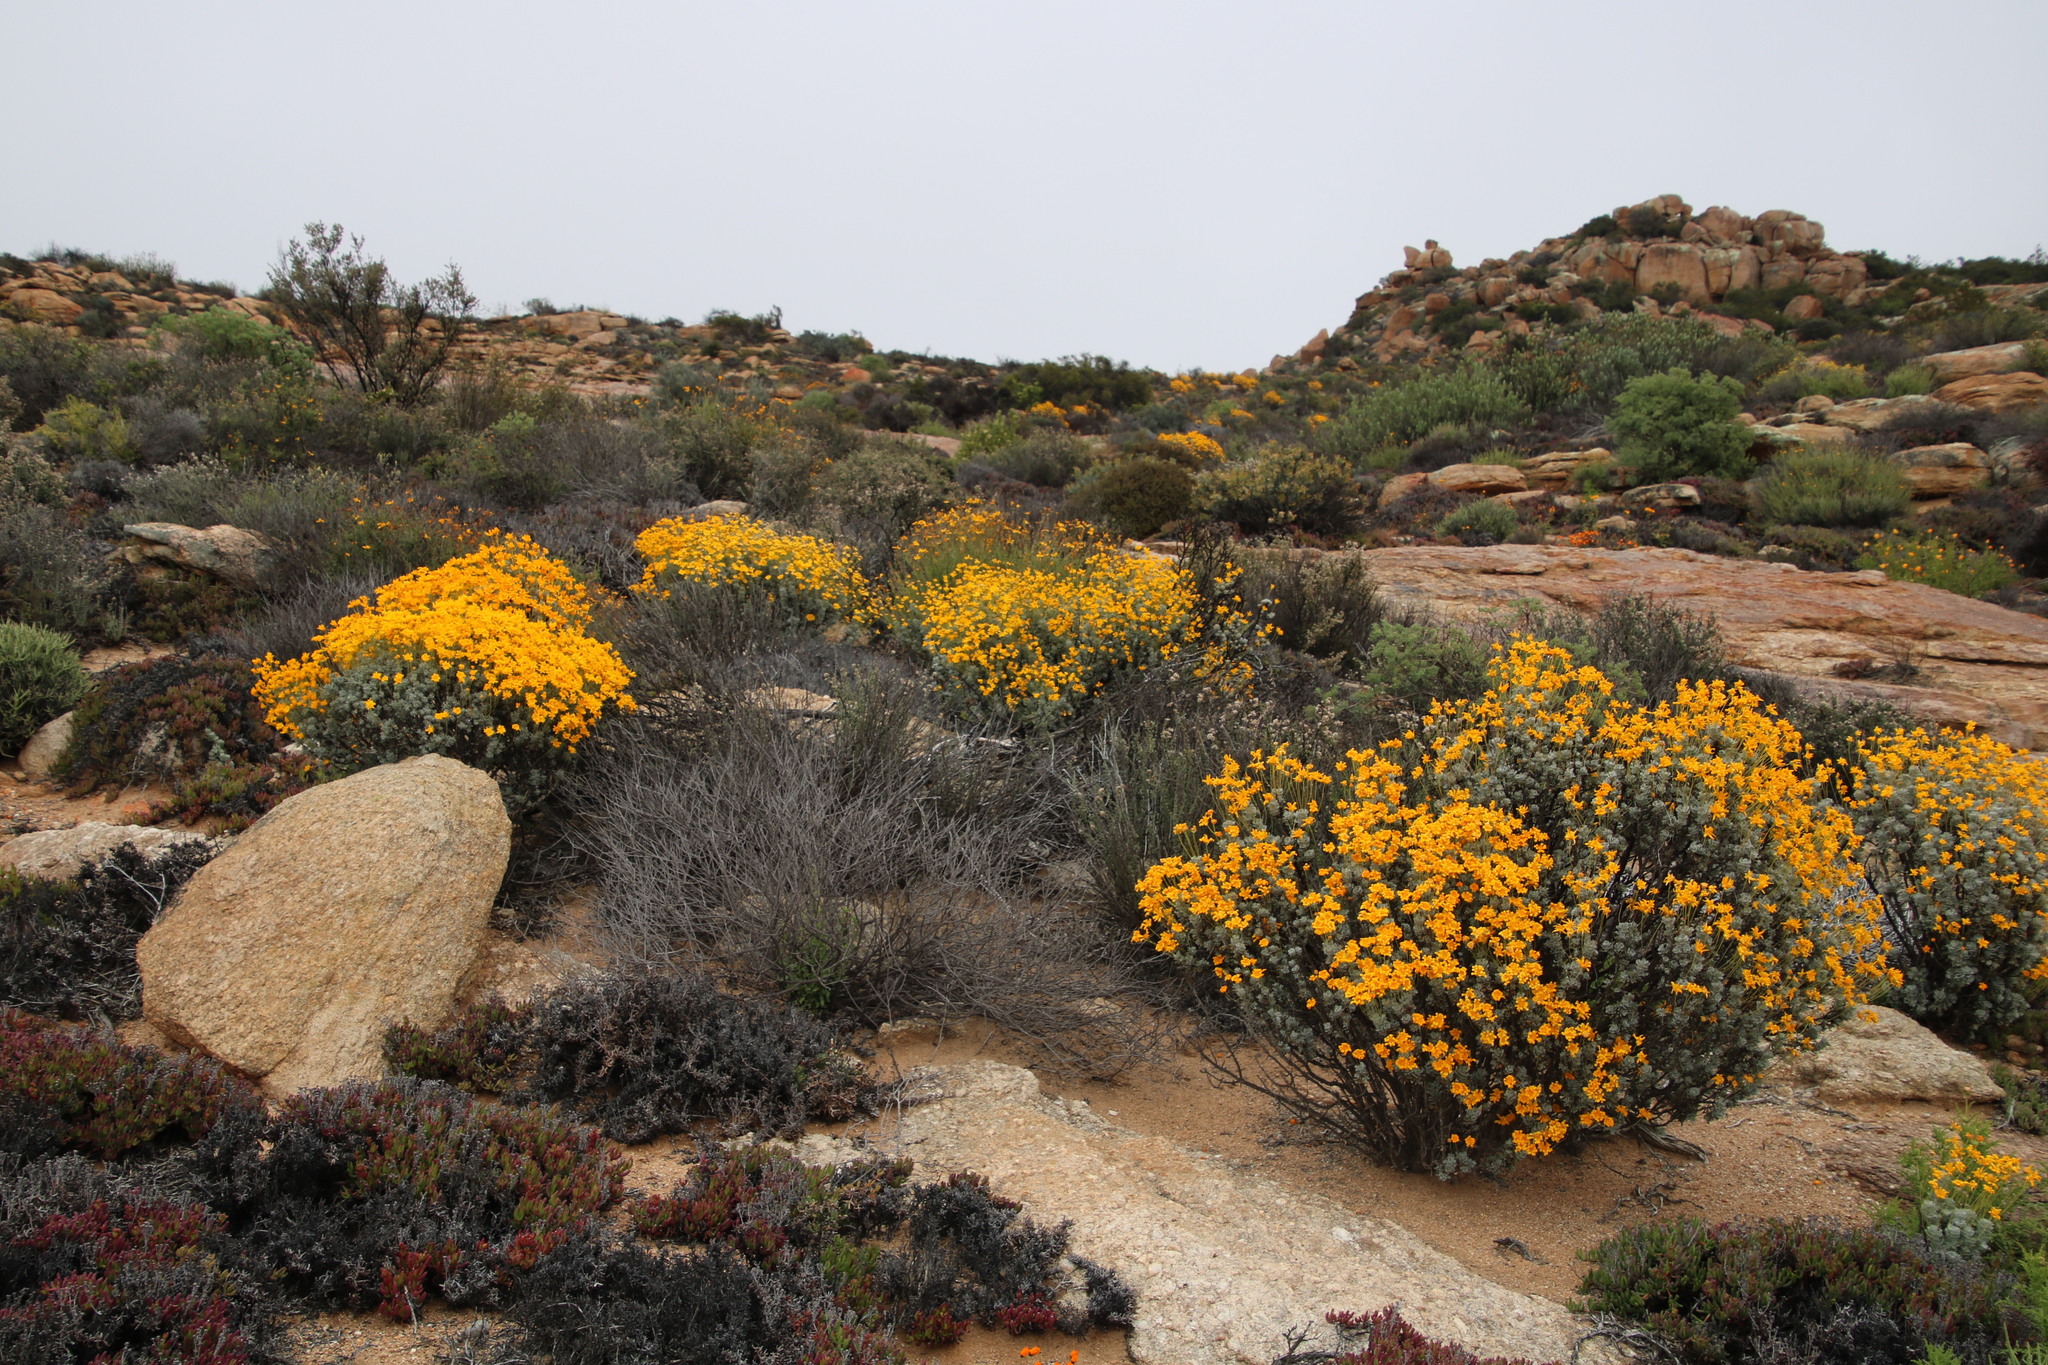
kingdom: Plantae
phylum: Tracheophyta
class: Magnoliopsida
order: Asterales
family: Asteraceae
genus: Euryops
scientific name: Euryops dregeanus
